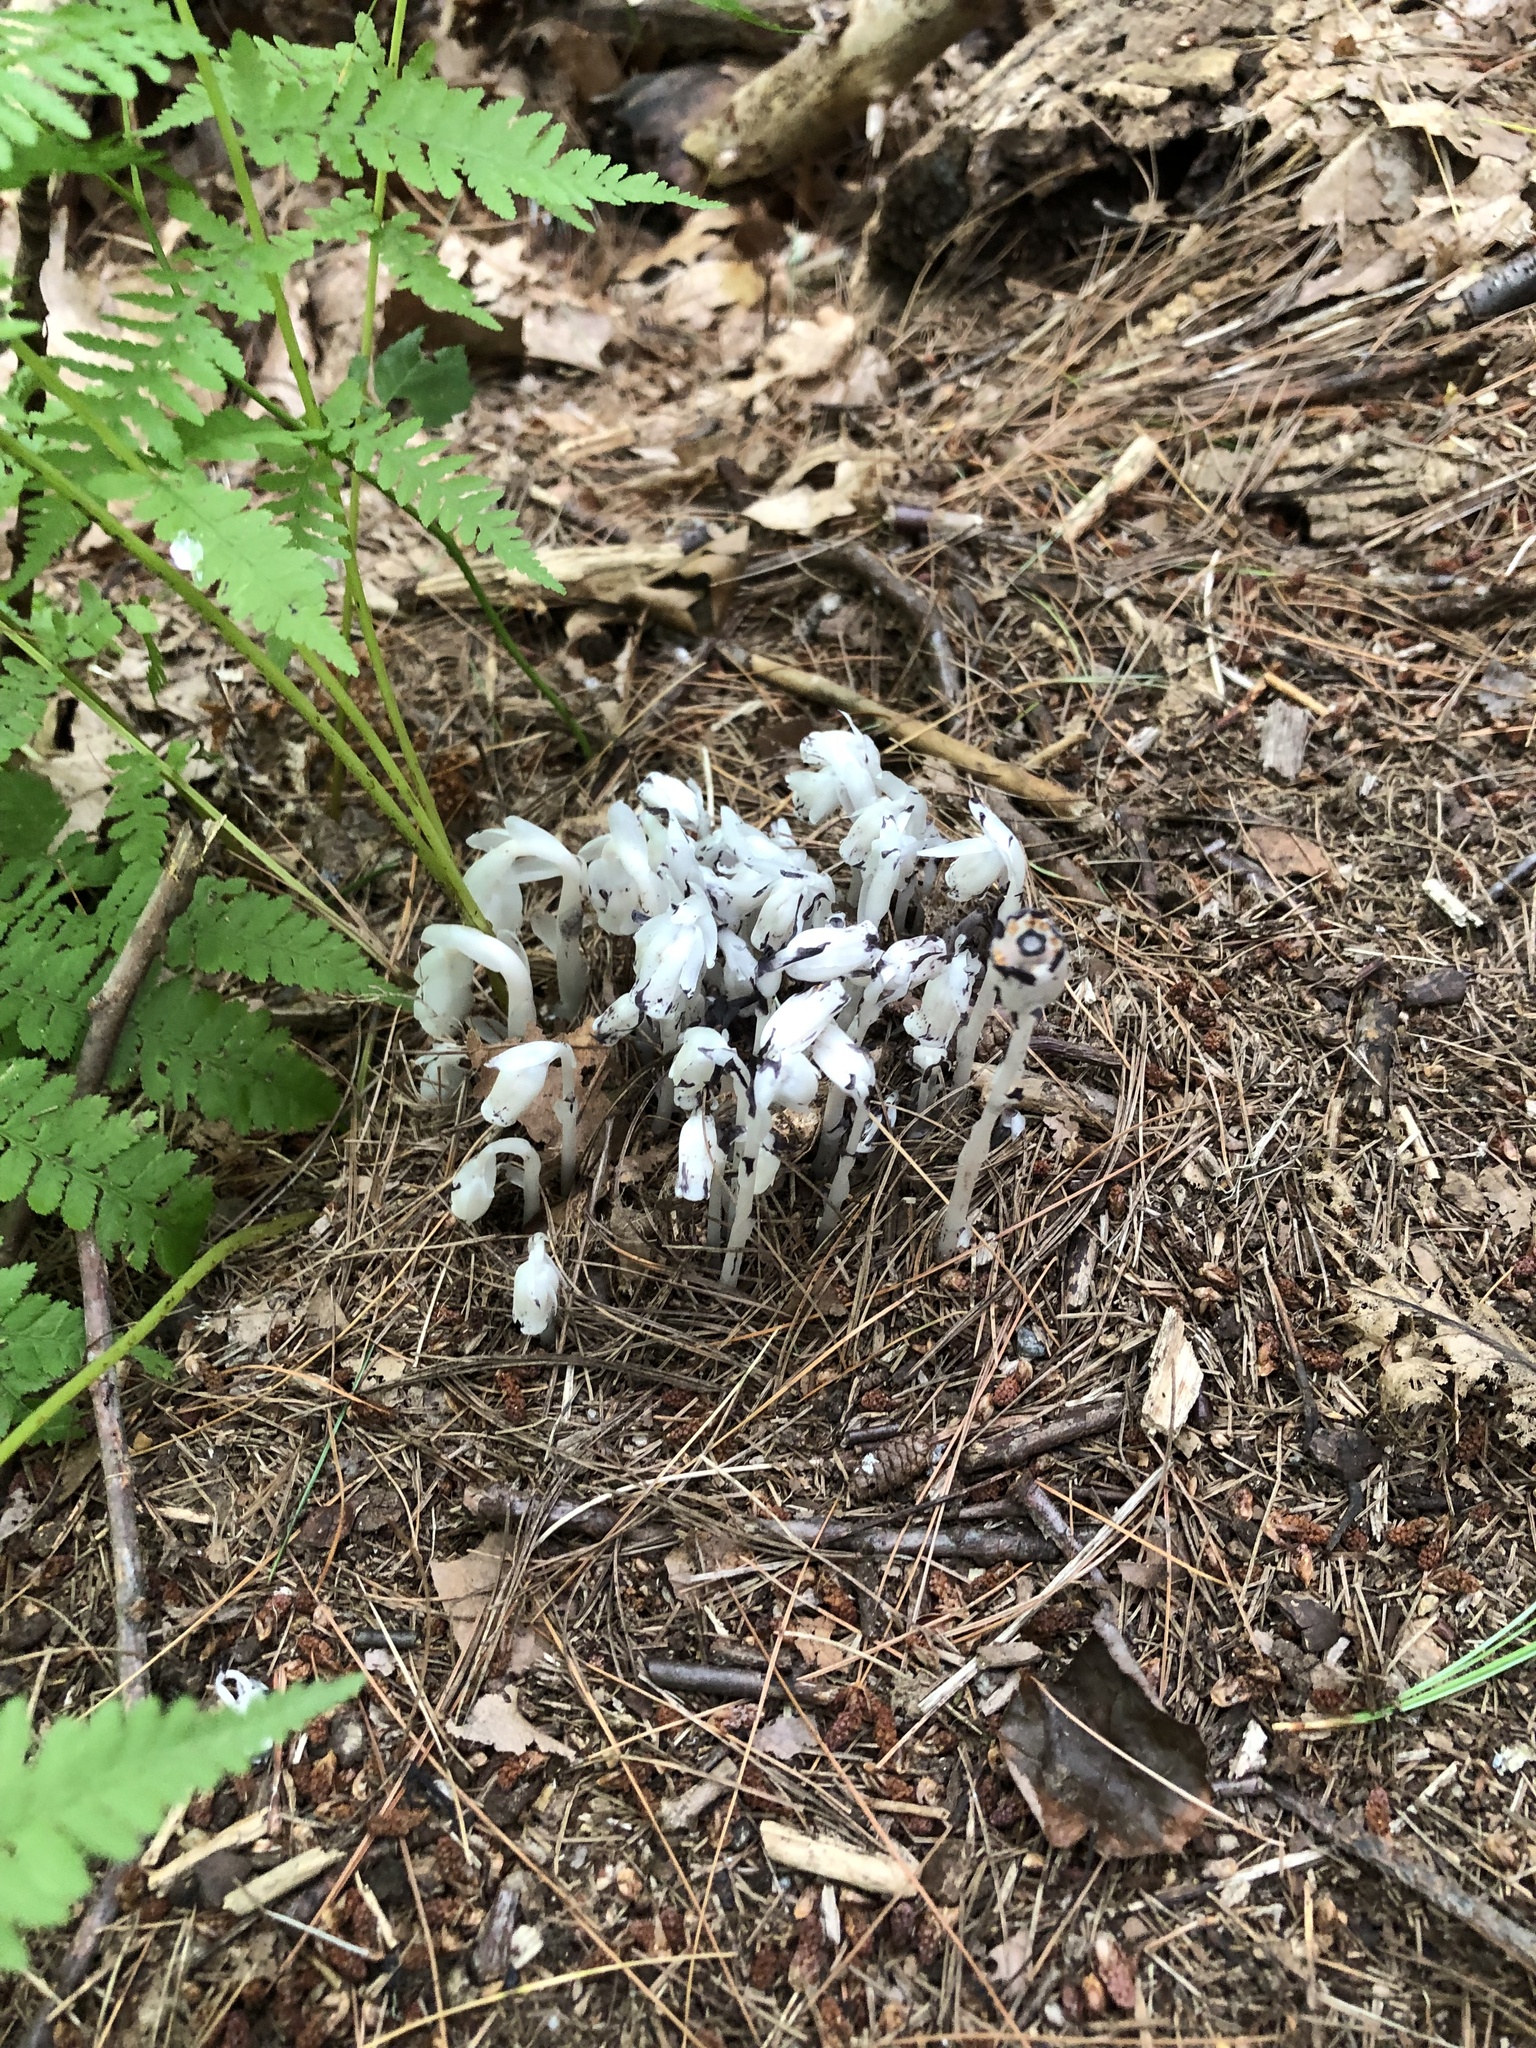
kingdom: Plantae
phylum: Tracheophyta
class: Magnoliopsida
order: Ericales
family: Ericaceae
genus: Monotropa
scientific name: Monotropa uniflora
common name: Convulsion root
